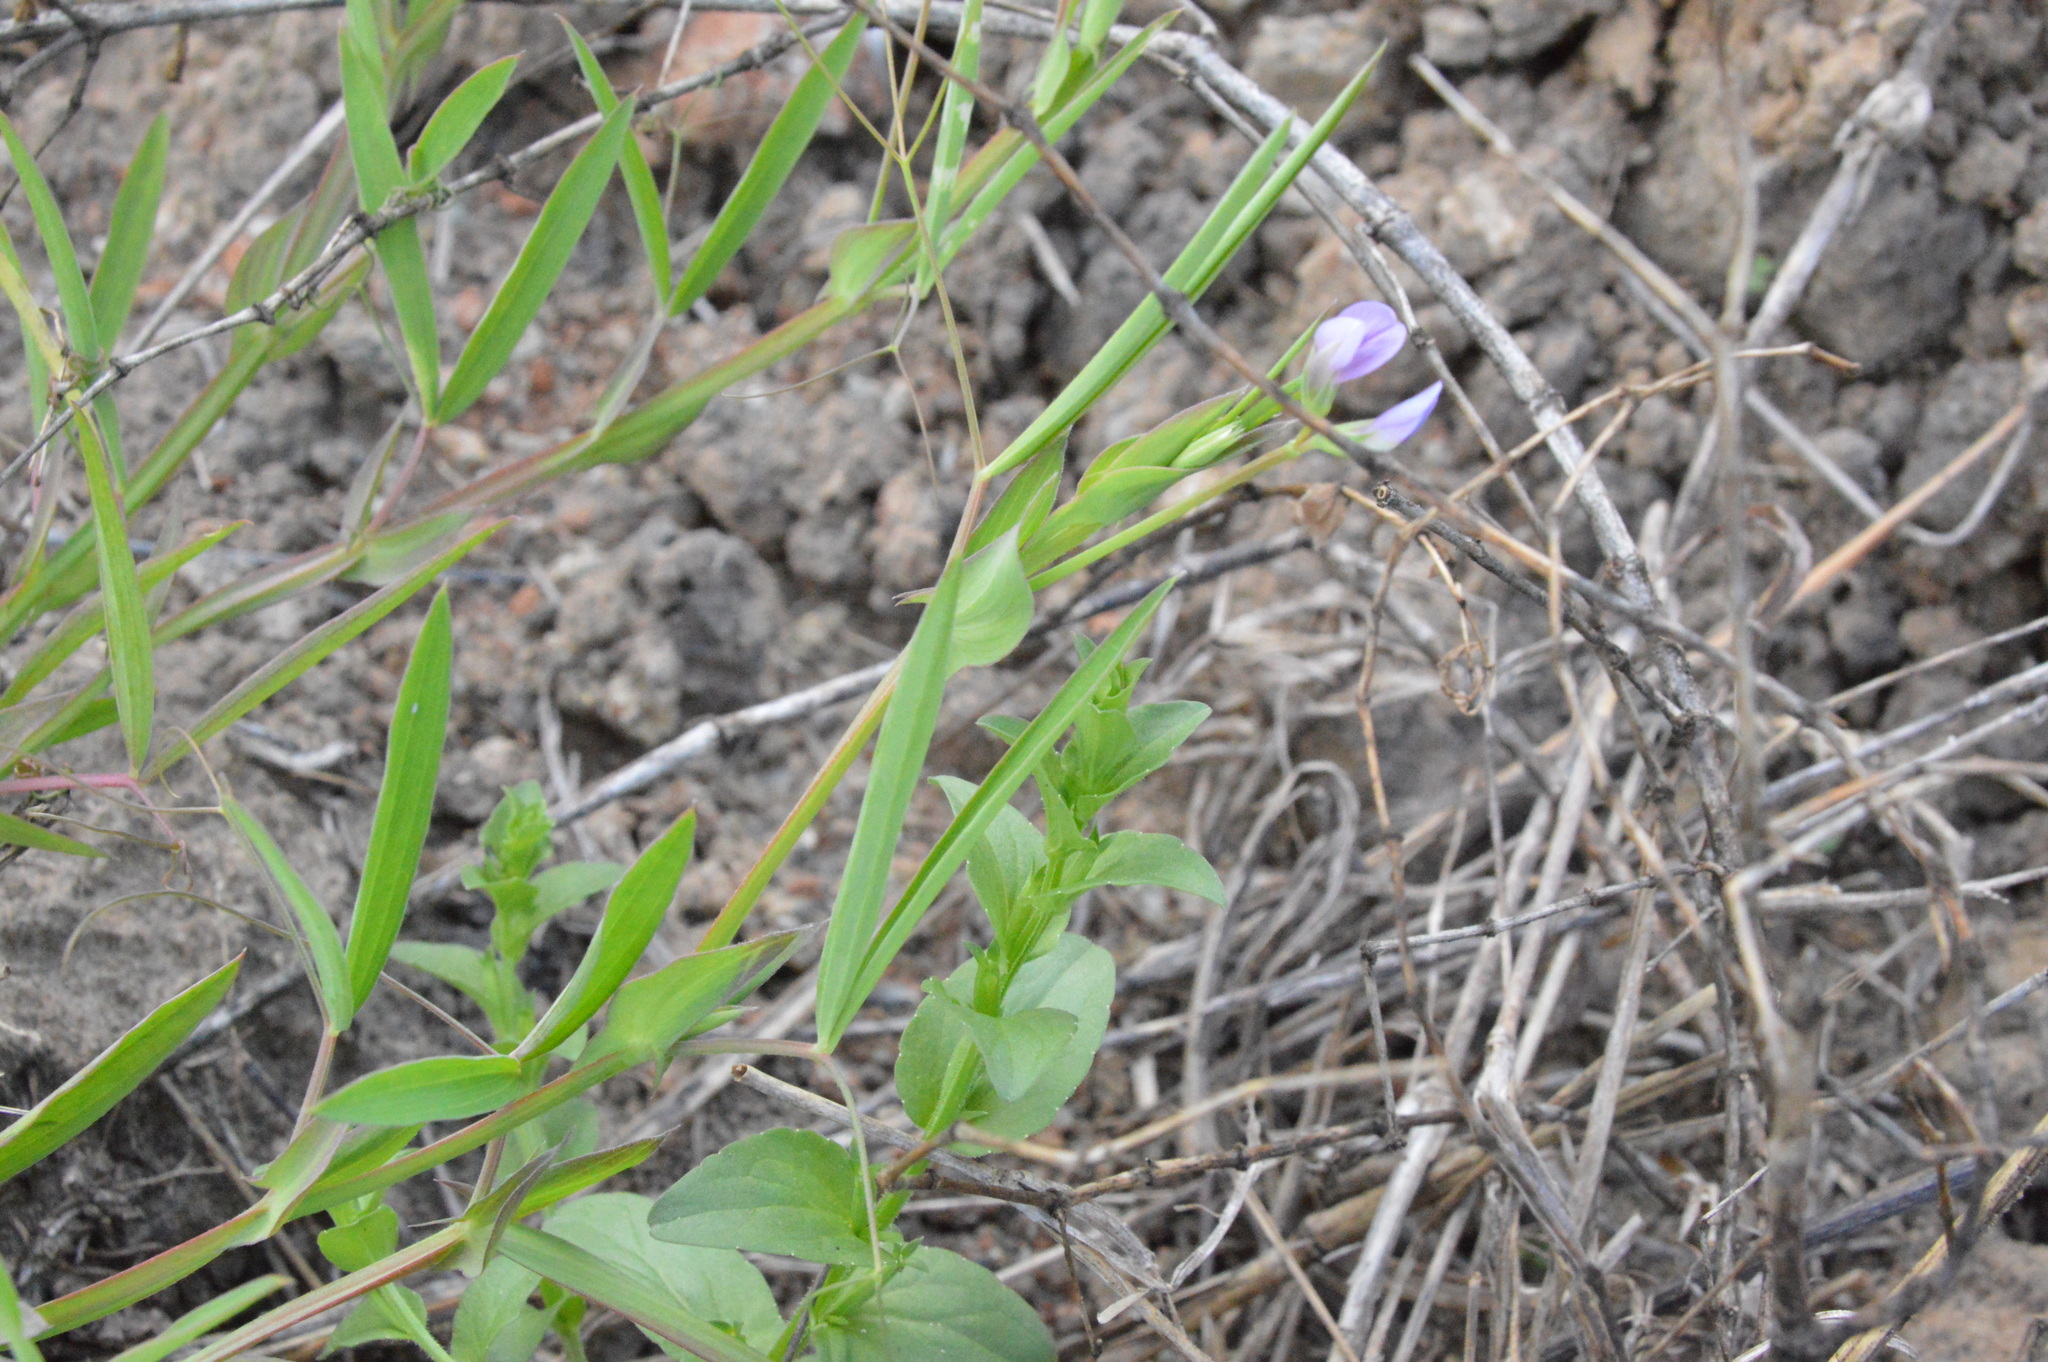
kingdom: Plantae
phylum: Tracheophyta
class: Magnoliopsida
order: Fabales
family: Fabaceae
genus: Lathyrus
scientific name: Lathyrus pusillus
